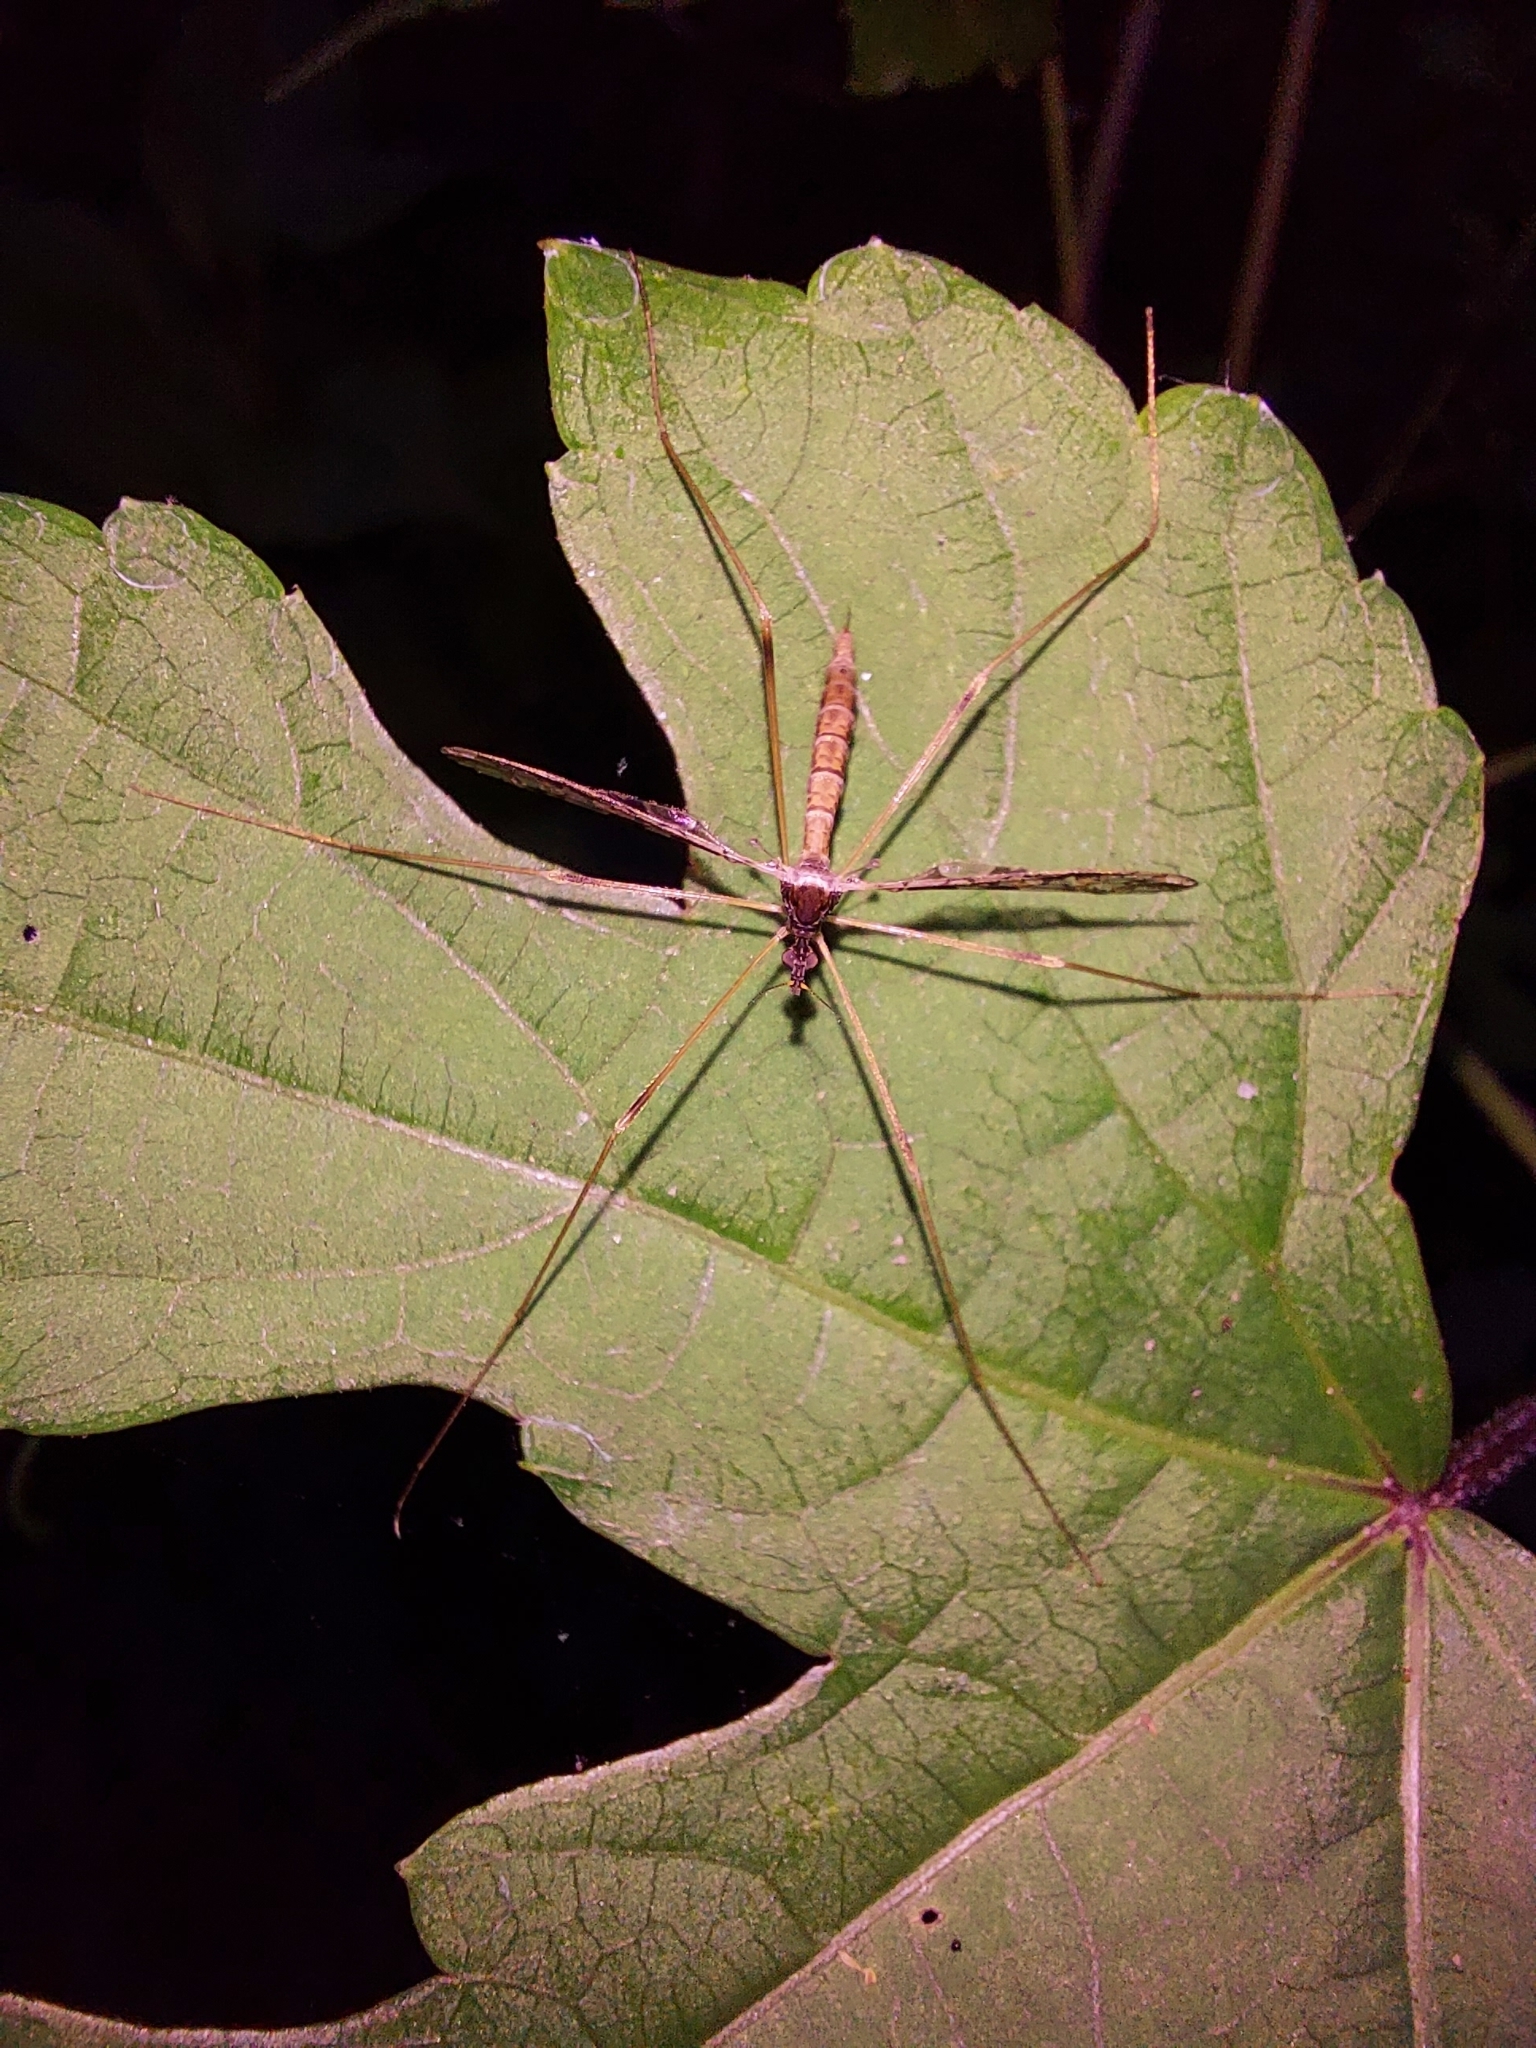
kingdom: Animalia
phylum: Arthropoda
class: Insecta
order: Diptera
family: Limoniidae
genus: Epiphragma
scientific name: Epiphragma solatrix
